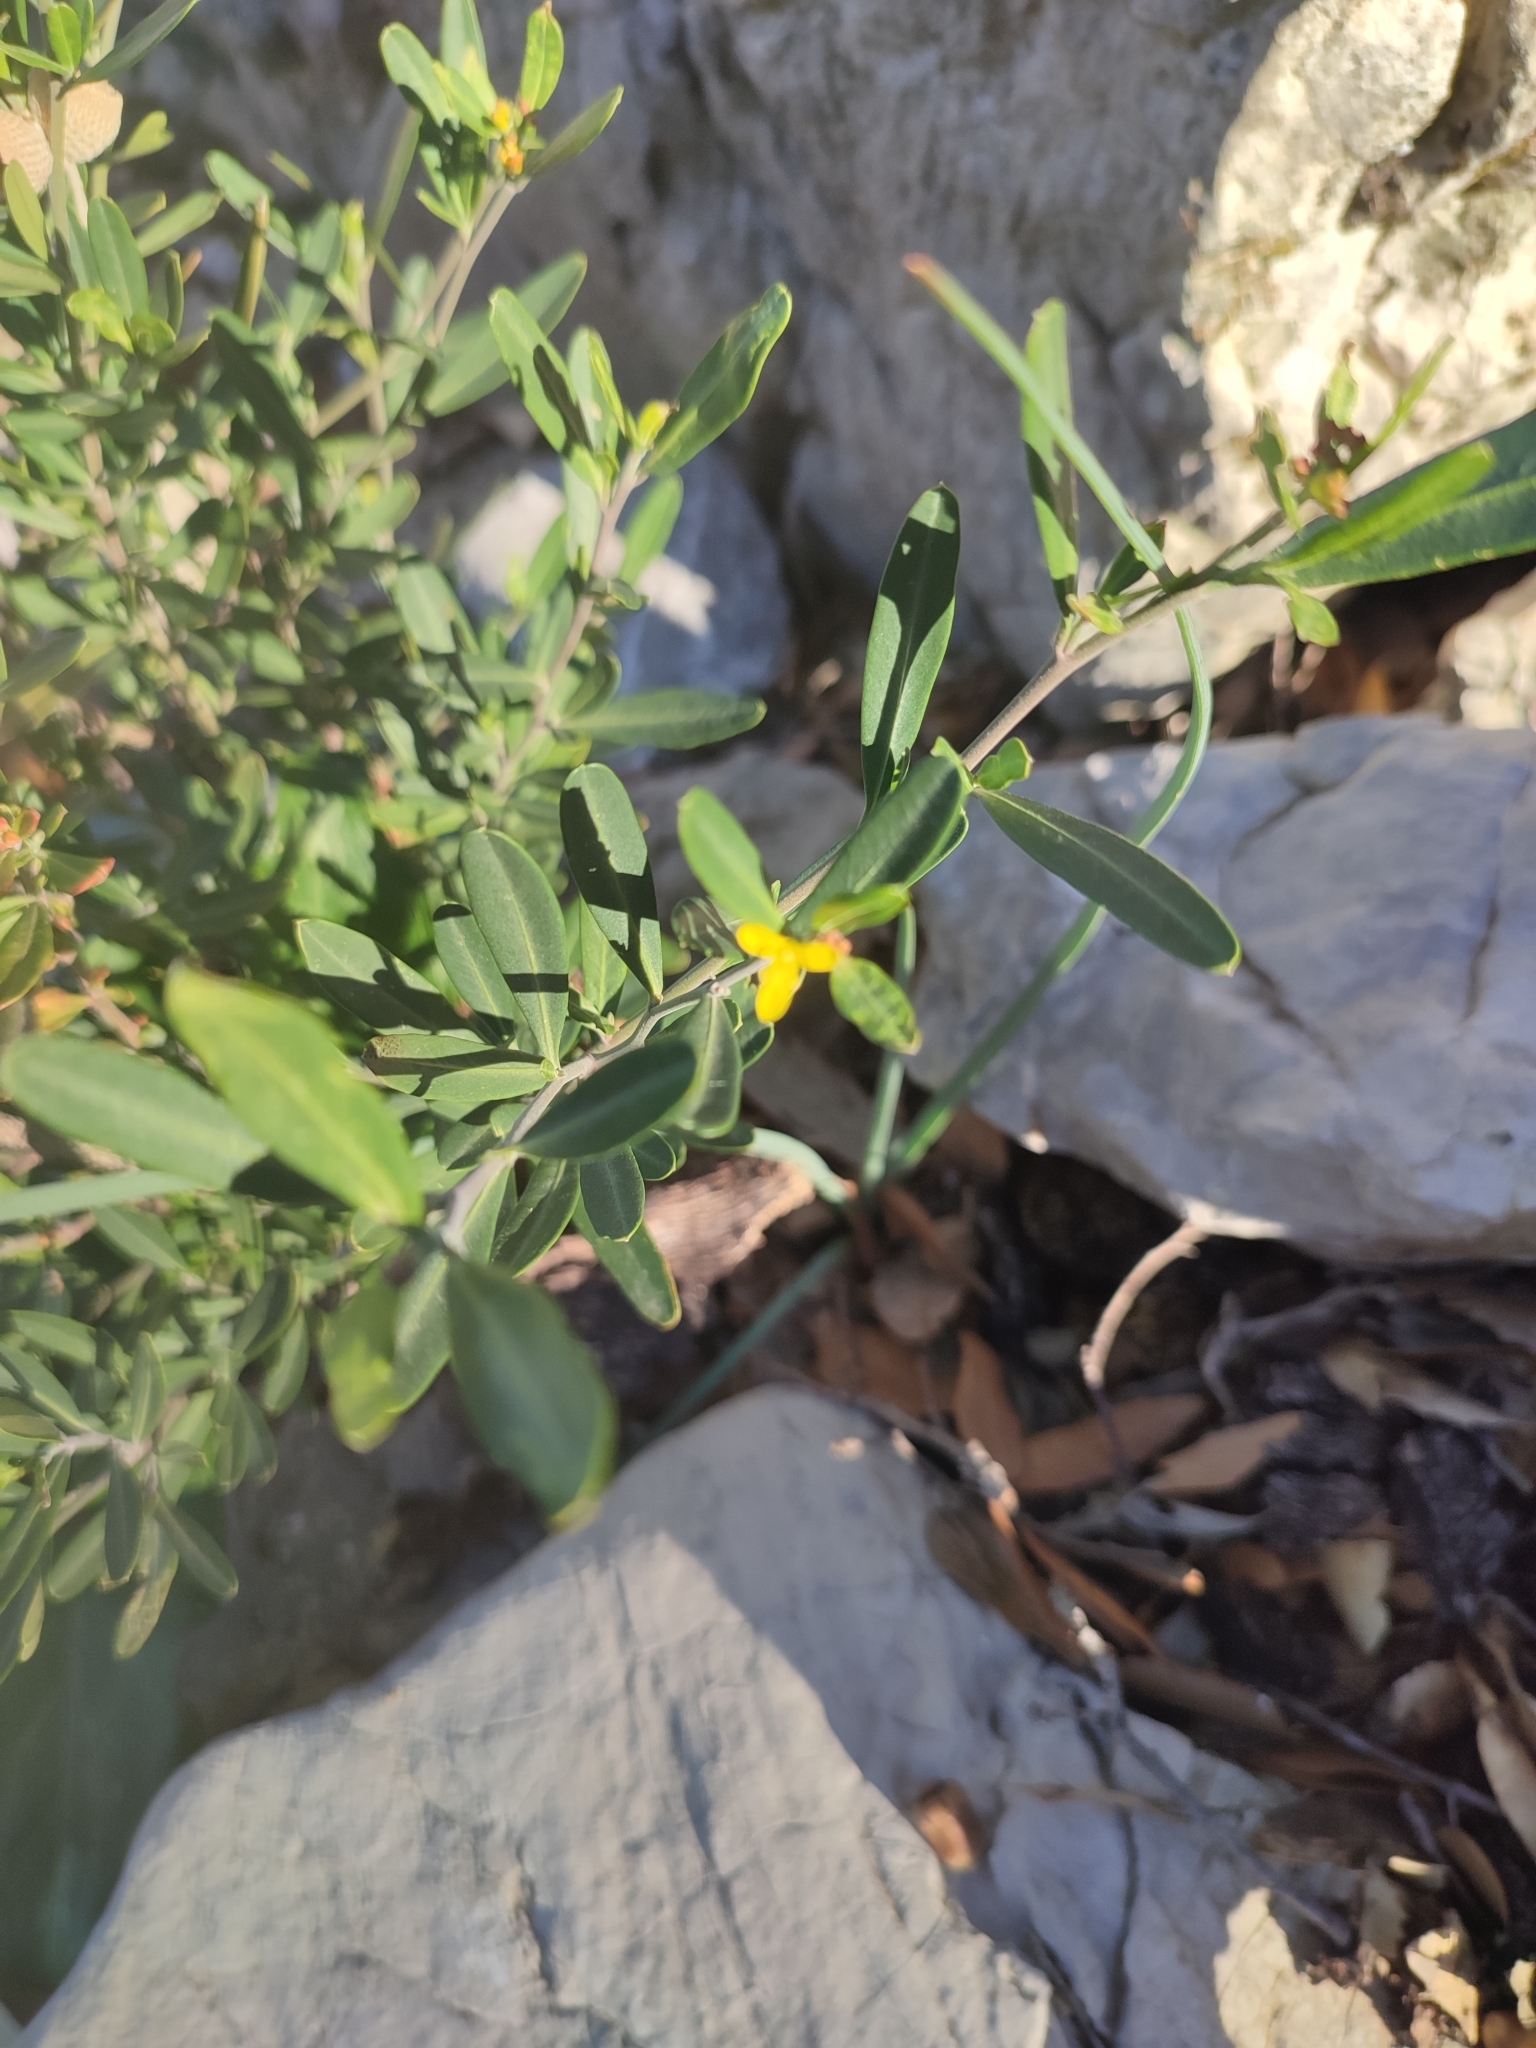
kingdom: Plantae
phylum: Tracheophyta
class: Magnoliopsida
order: Sapindales
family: Rutaceae
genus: Cneorum
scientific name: Cneorum tricoccon
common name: Spurge olive
